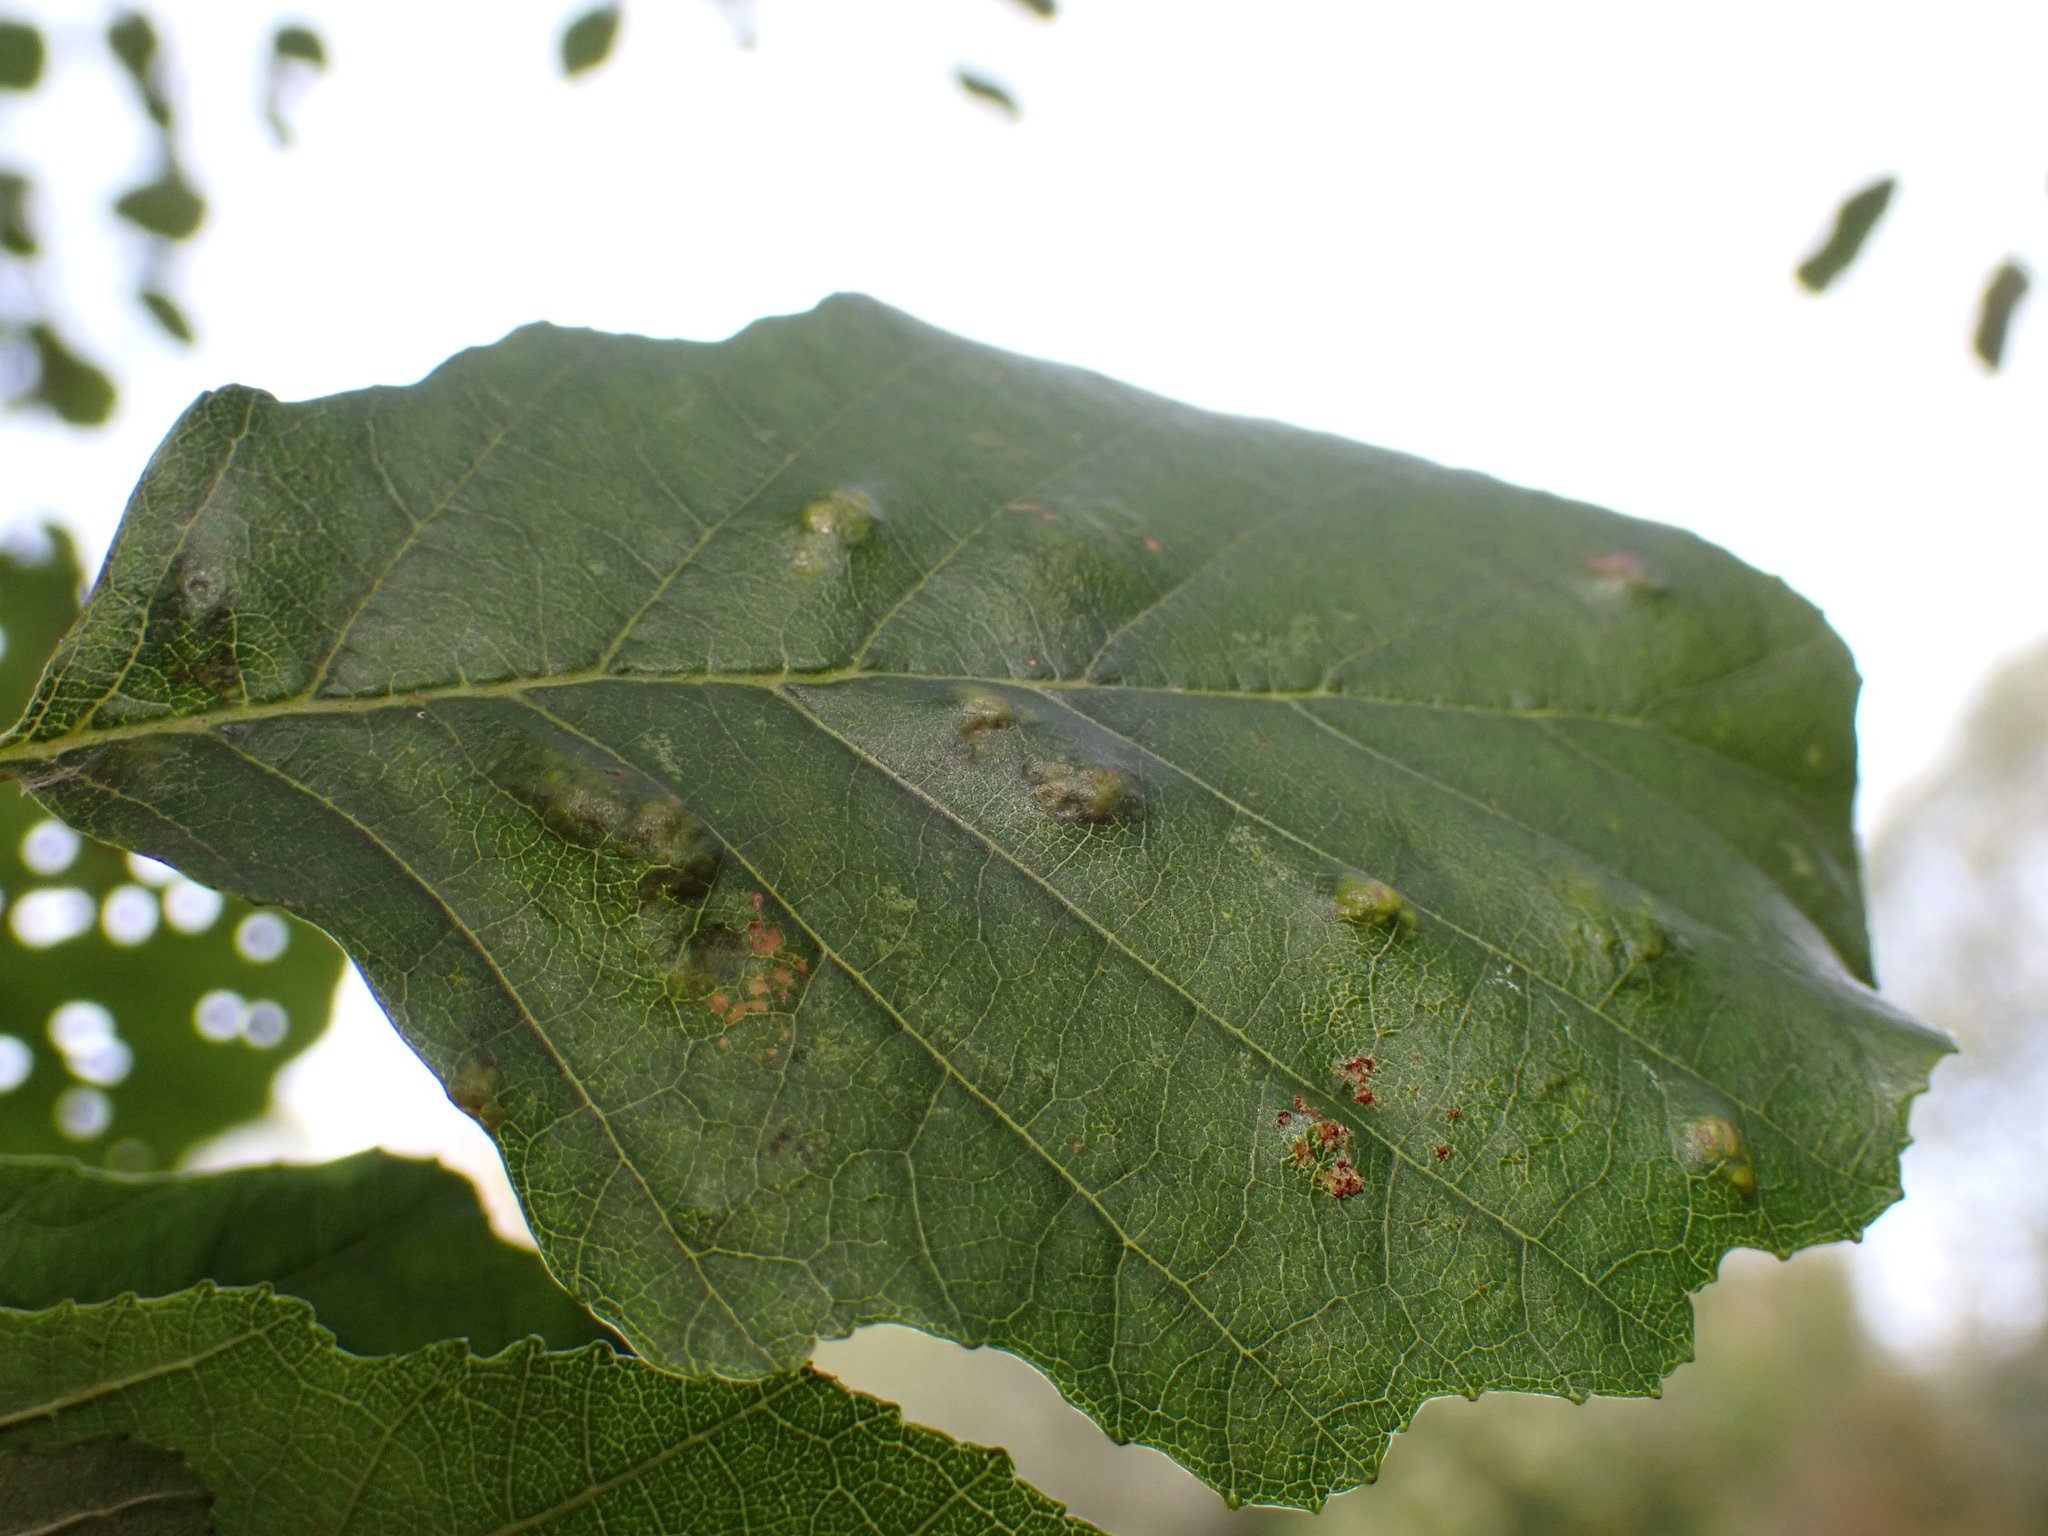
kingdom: Animalia
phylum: Arthropoda
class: Arachnida
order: Trombidiformes
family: Eriophyidae
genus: Acalitus
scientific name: Acalitus brevitarsus
